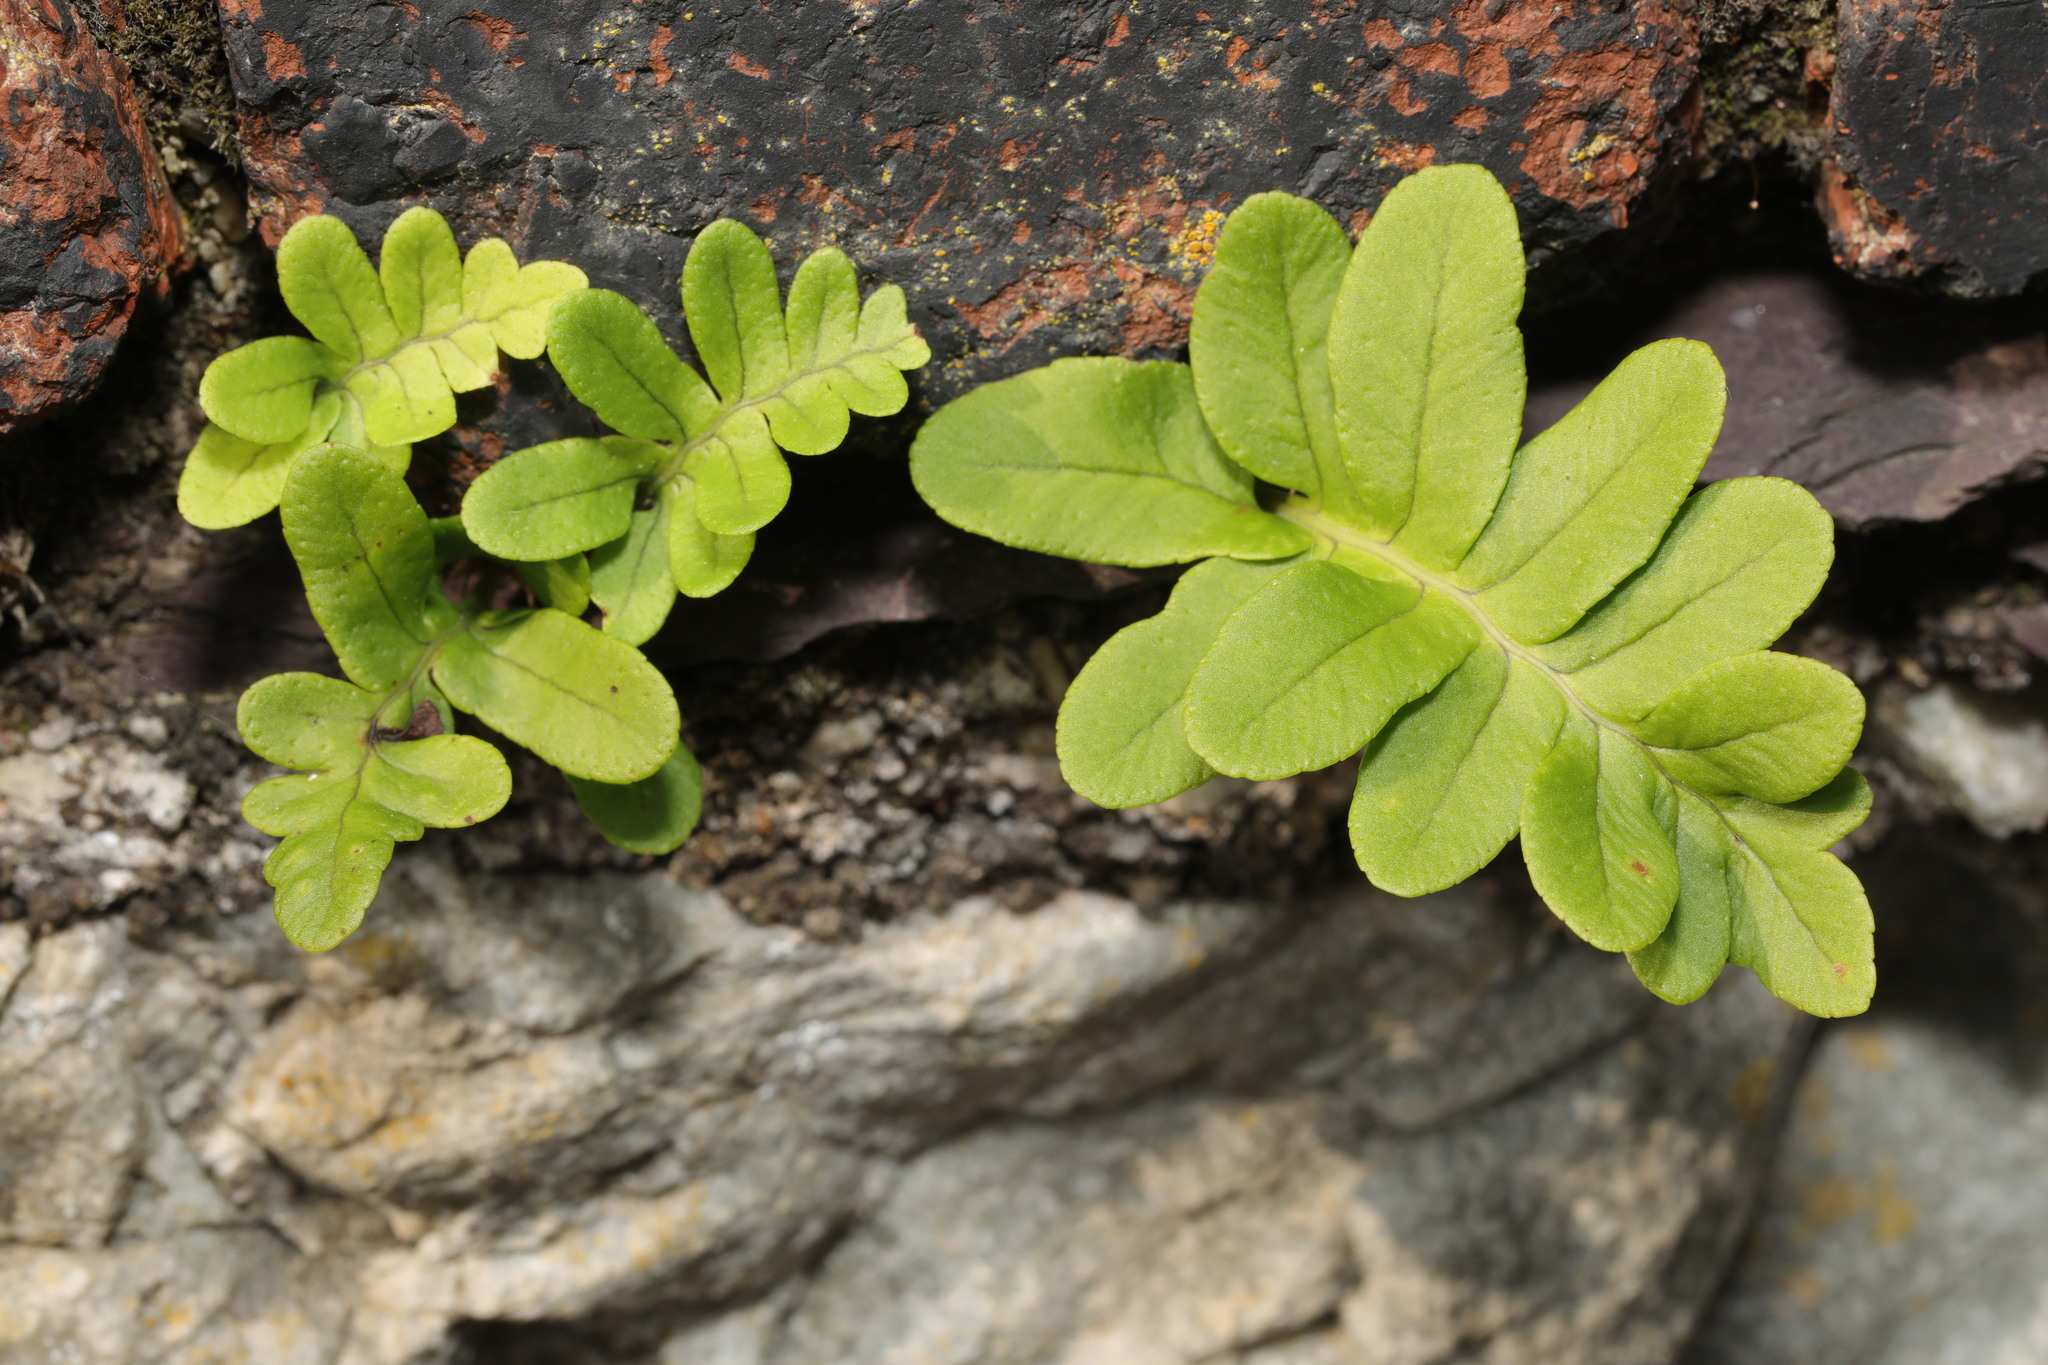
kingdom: Plantae
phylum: Tracheophyta
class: Polypodiopsida
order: Polypodiales
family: Polypodiaceae
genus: Polypodium
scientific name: Polypodium vulgare
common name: Common polypody
